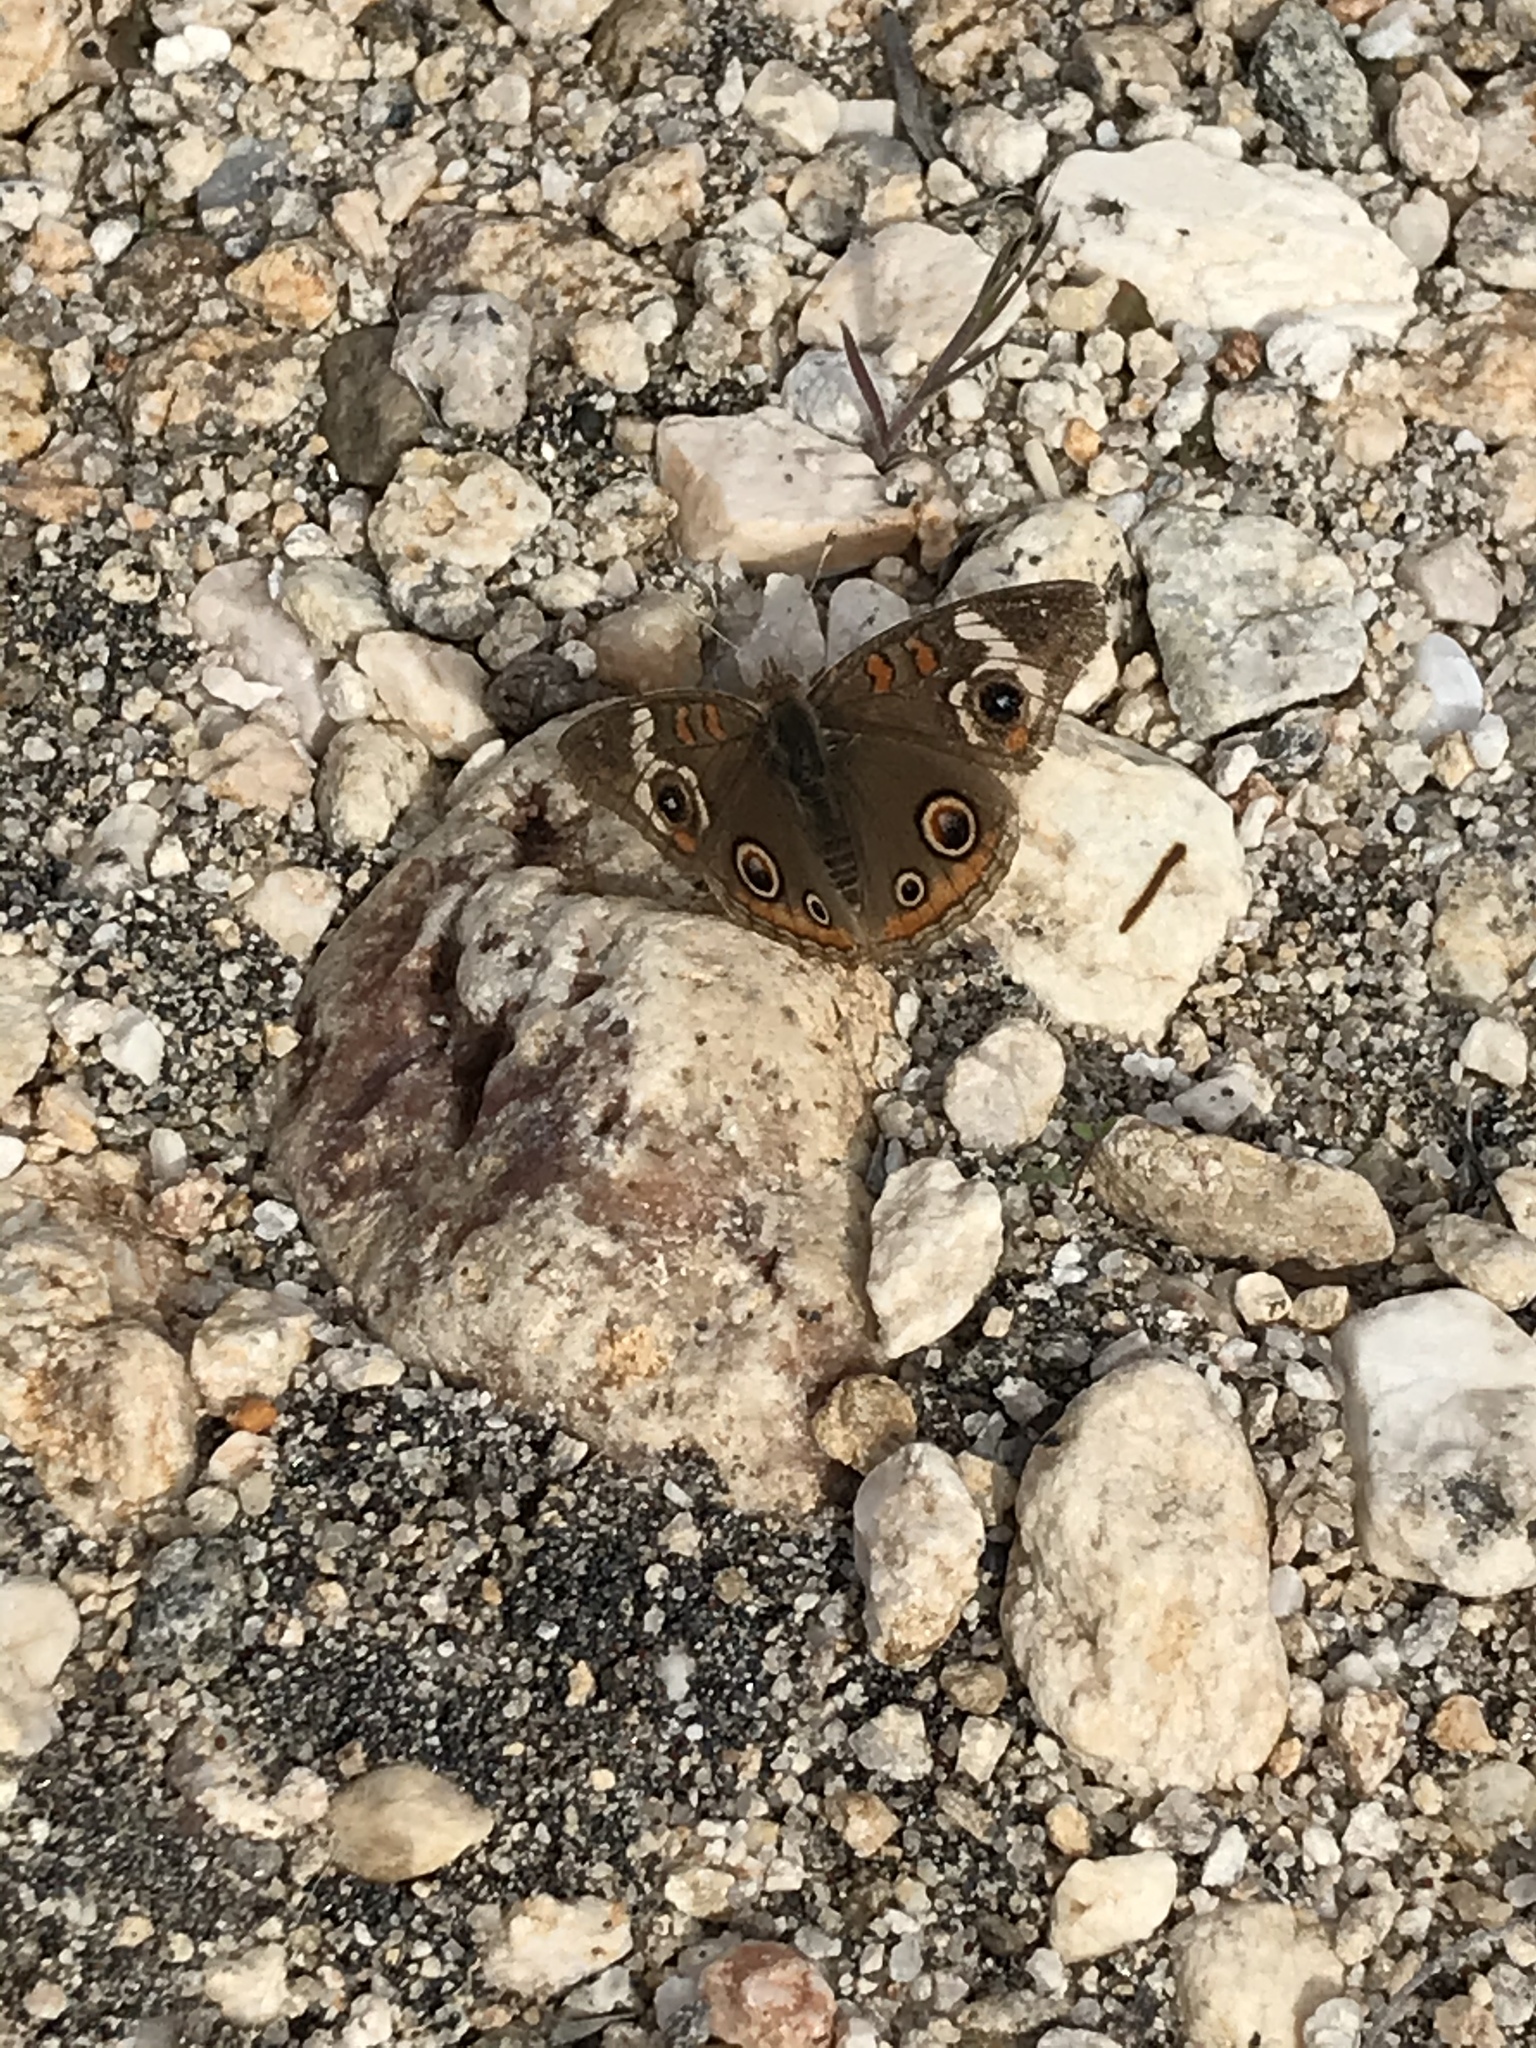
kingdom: Animalia
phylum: Arthropoda
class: Insecta
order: Lepidoptera
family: Nymphalidae
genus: Junonia
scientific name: Junonia grisea
